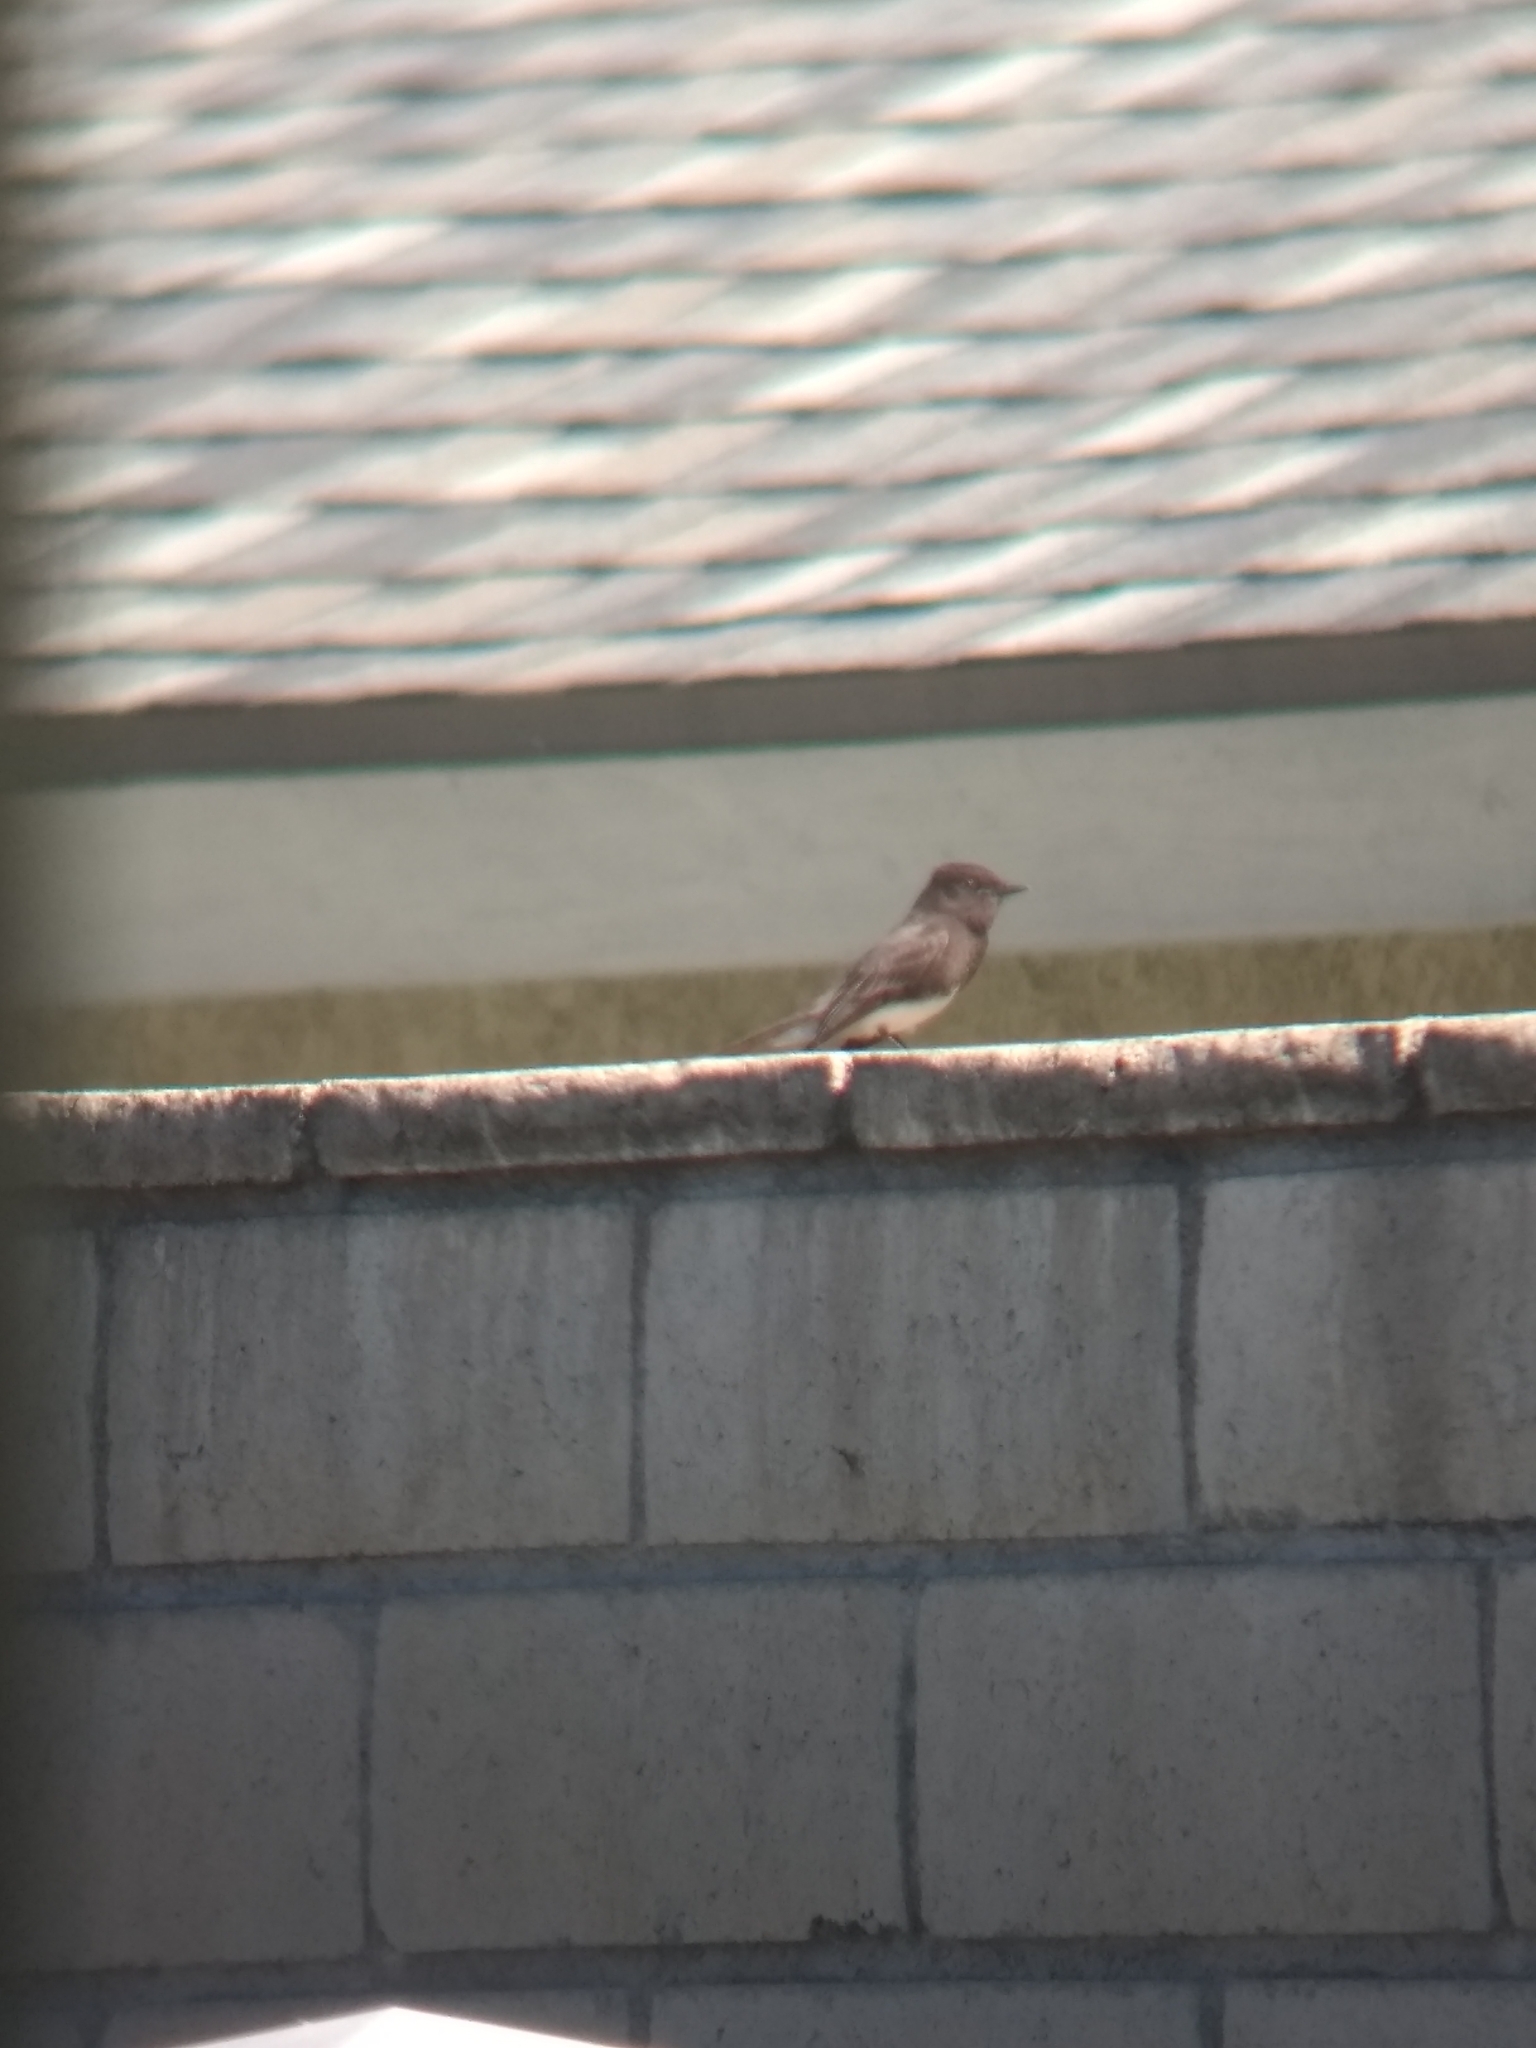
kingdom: Animalia
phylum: Chordata
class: Aves
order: Passeriformes
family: Tyrannidae
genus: Sayornis
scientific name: Sayornis nigricans
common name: Black phoebe
